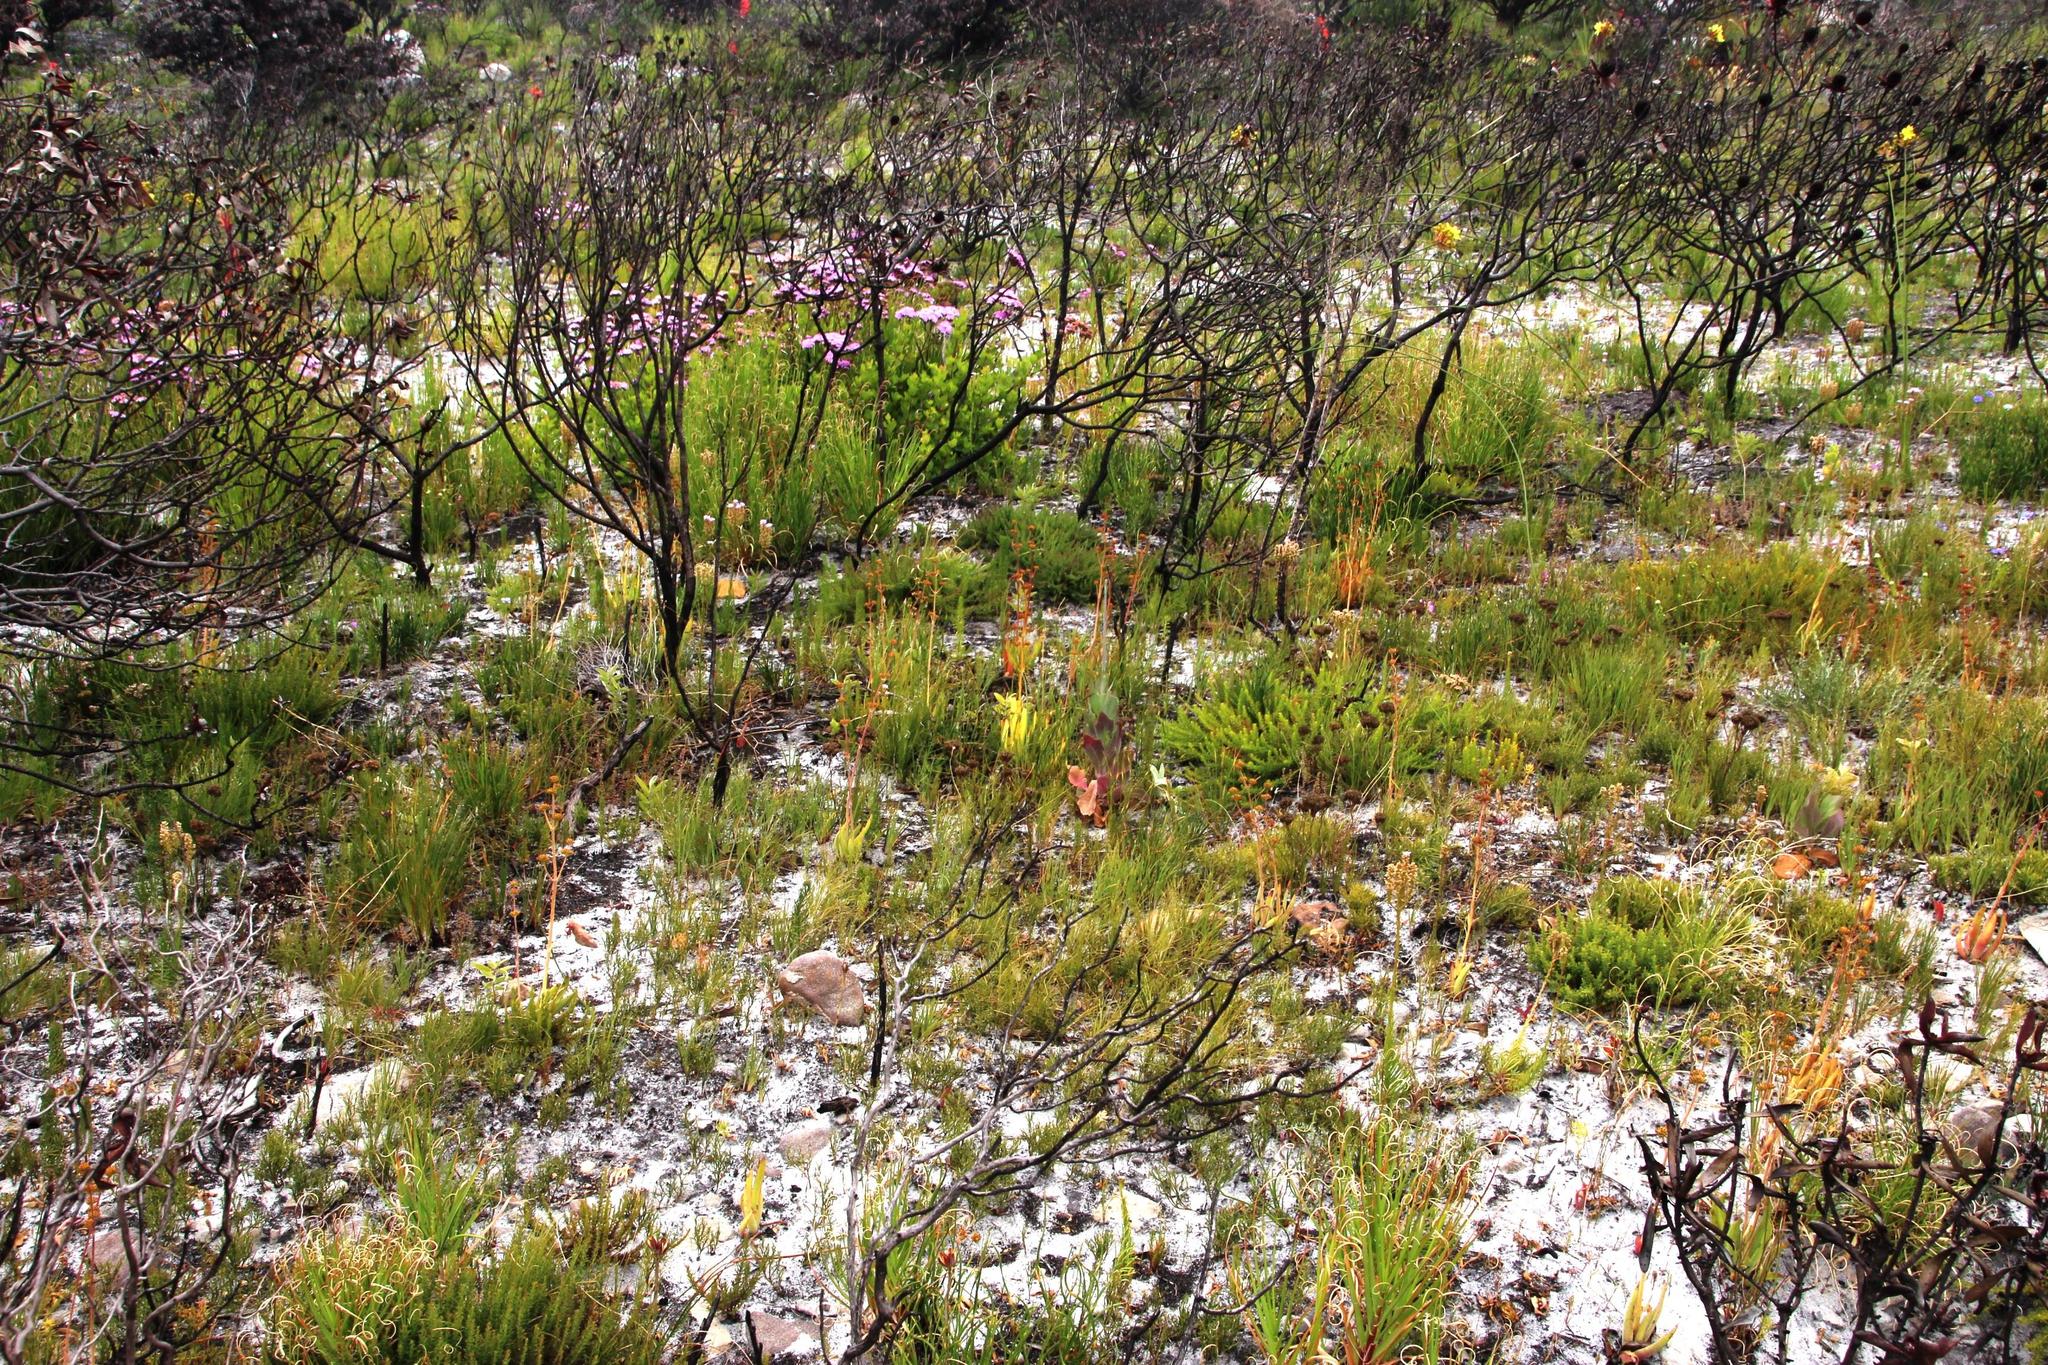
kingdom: Plantae
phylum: Tracheophyta
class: Magnoliopsida
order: Saxifragales
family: Crassulaceae
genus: Crassula
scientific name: Crassula nudicaulis
